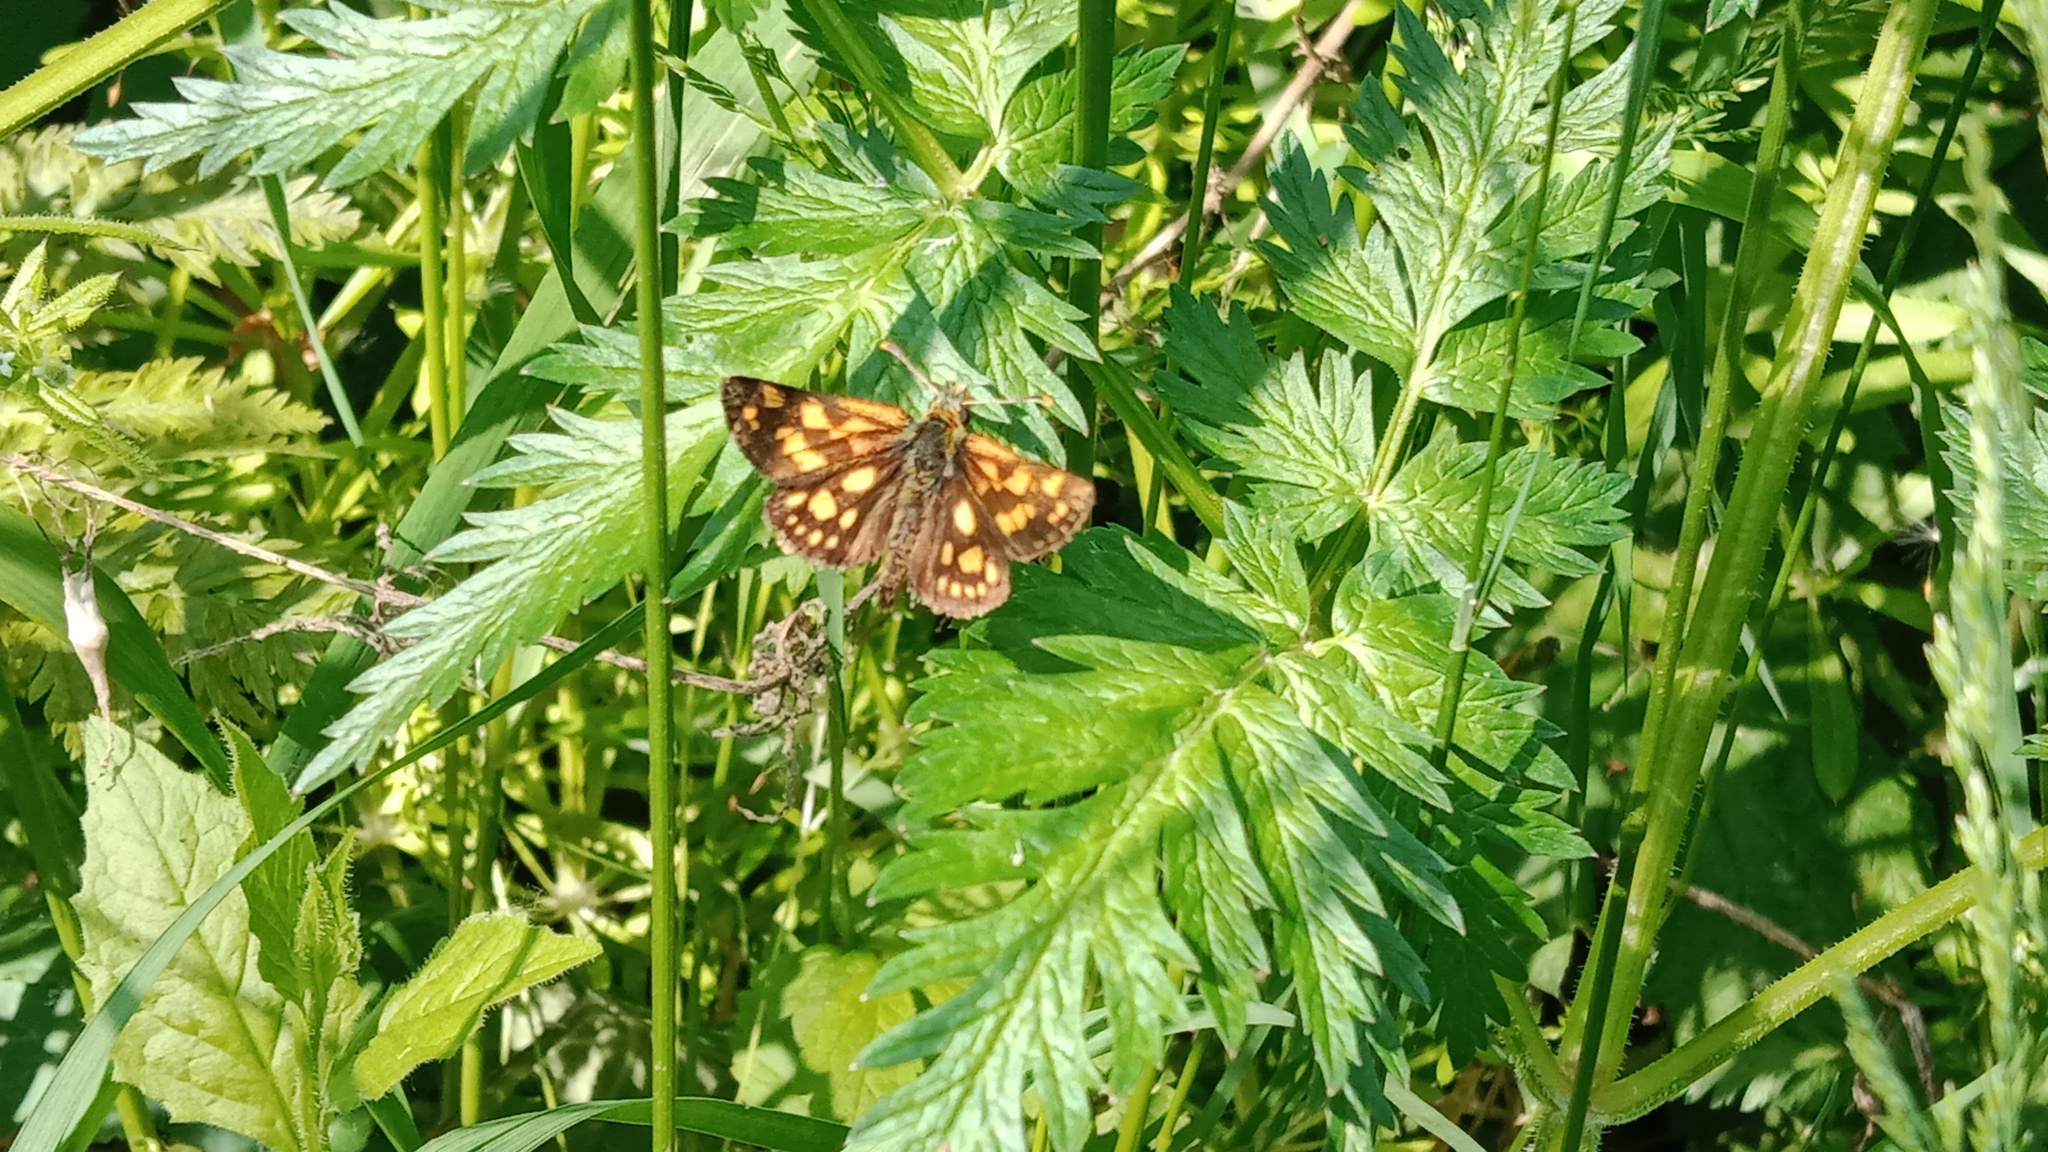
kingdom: Animalia
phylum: Arthropoda
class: Insecta
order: Lepidoptera
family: Hesperiidae
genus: Carterocephalus
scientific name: Carterocephalus palaemon
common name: Chequered skipper
